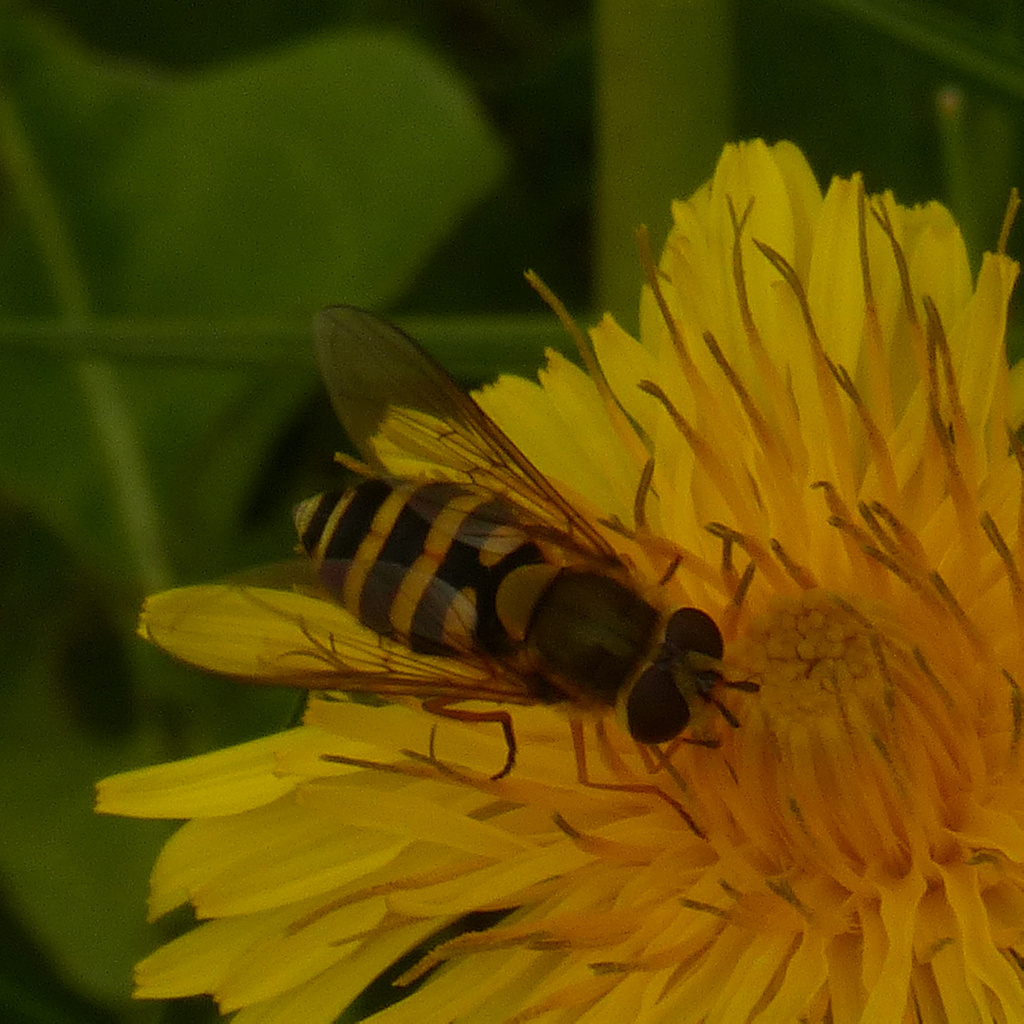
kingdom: Animalia
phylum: Arthropoda
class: Insecta
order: Diptera
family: Syrphidae
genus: Syrphus
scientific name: Syrphus
